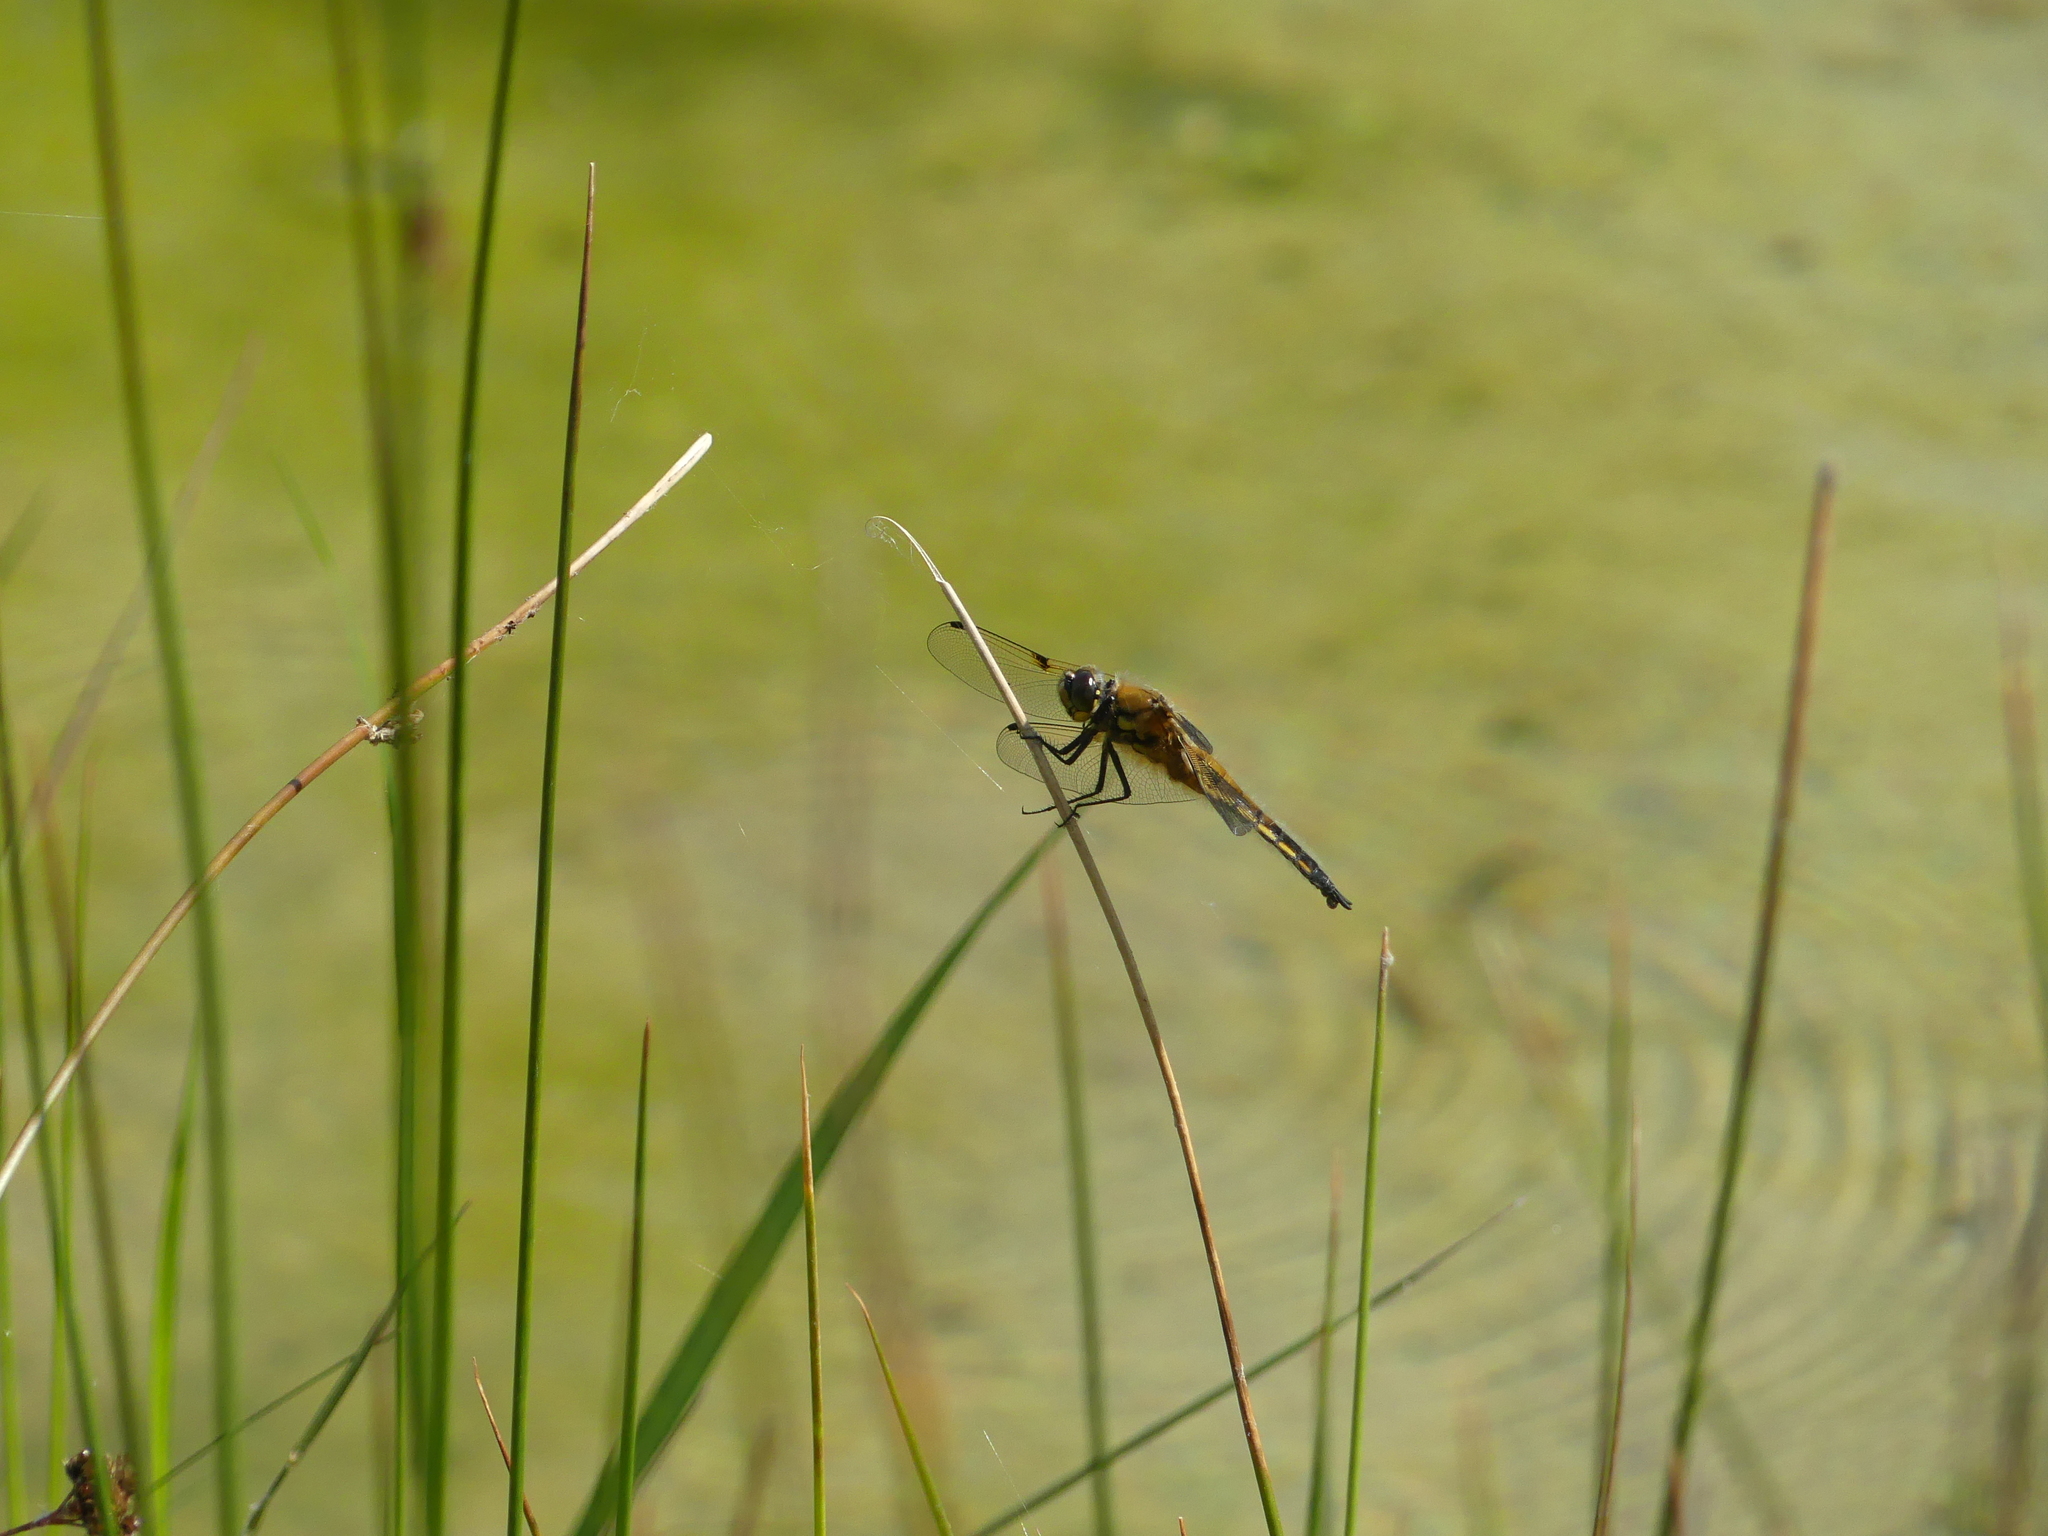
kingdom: Animalia
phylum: Arthropoda
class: Insecta
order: Odonata
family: Libellulidae
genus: Libellula
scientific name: Libellula quadrimaculata
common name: Four-spotted chaser
